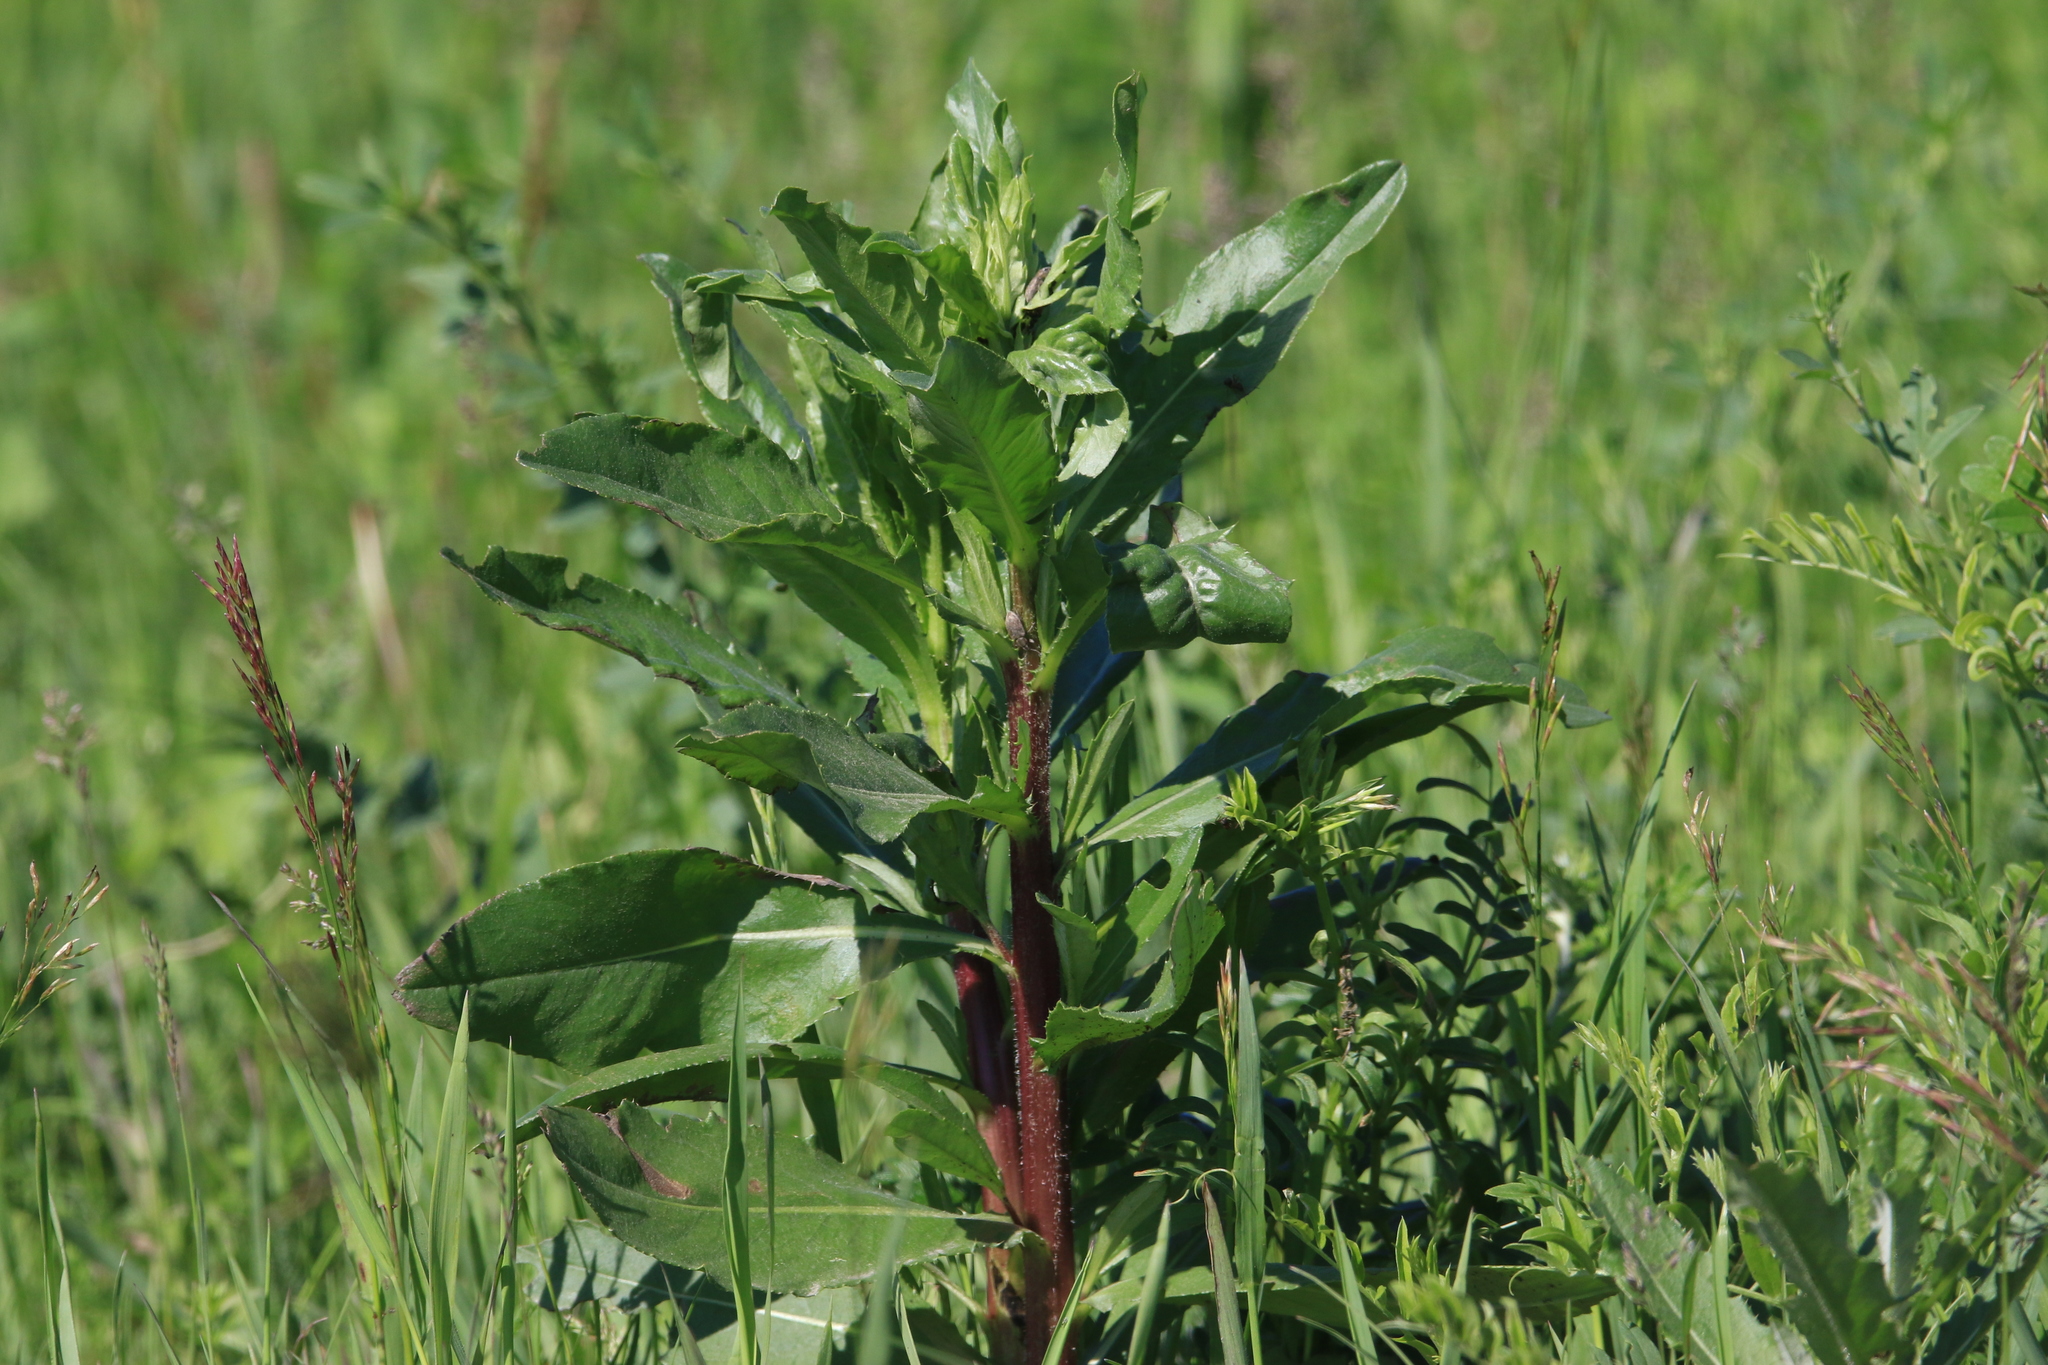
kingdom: Plantae
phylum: Tracheophyta
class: Magnoliopsida
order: Asterales
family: Asteraceae
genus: Cirsium
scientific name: Cirsium arvense
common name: Creeping thistle
